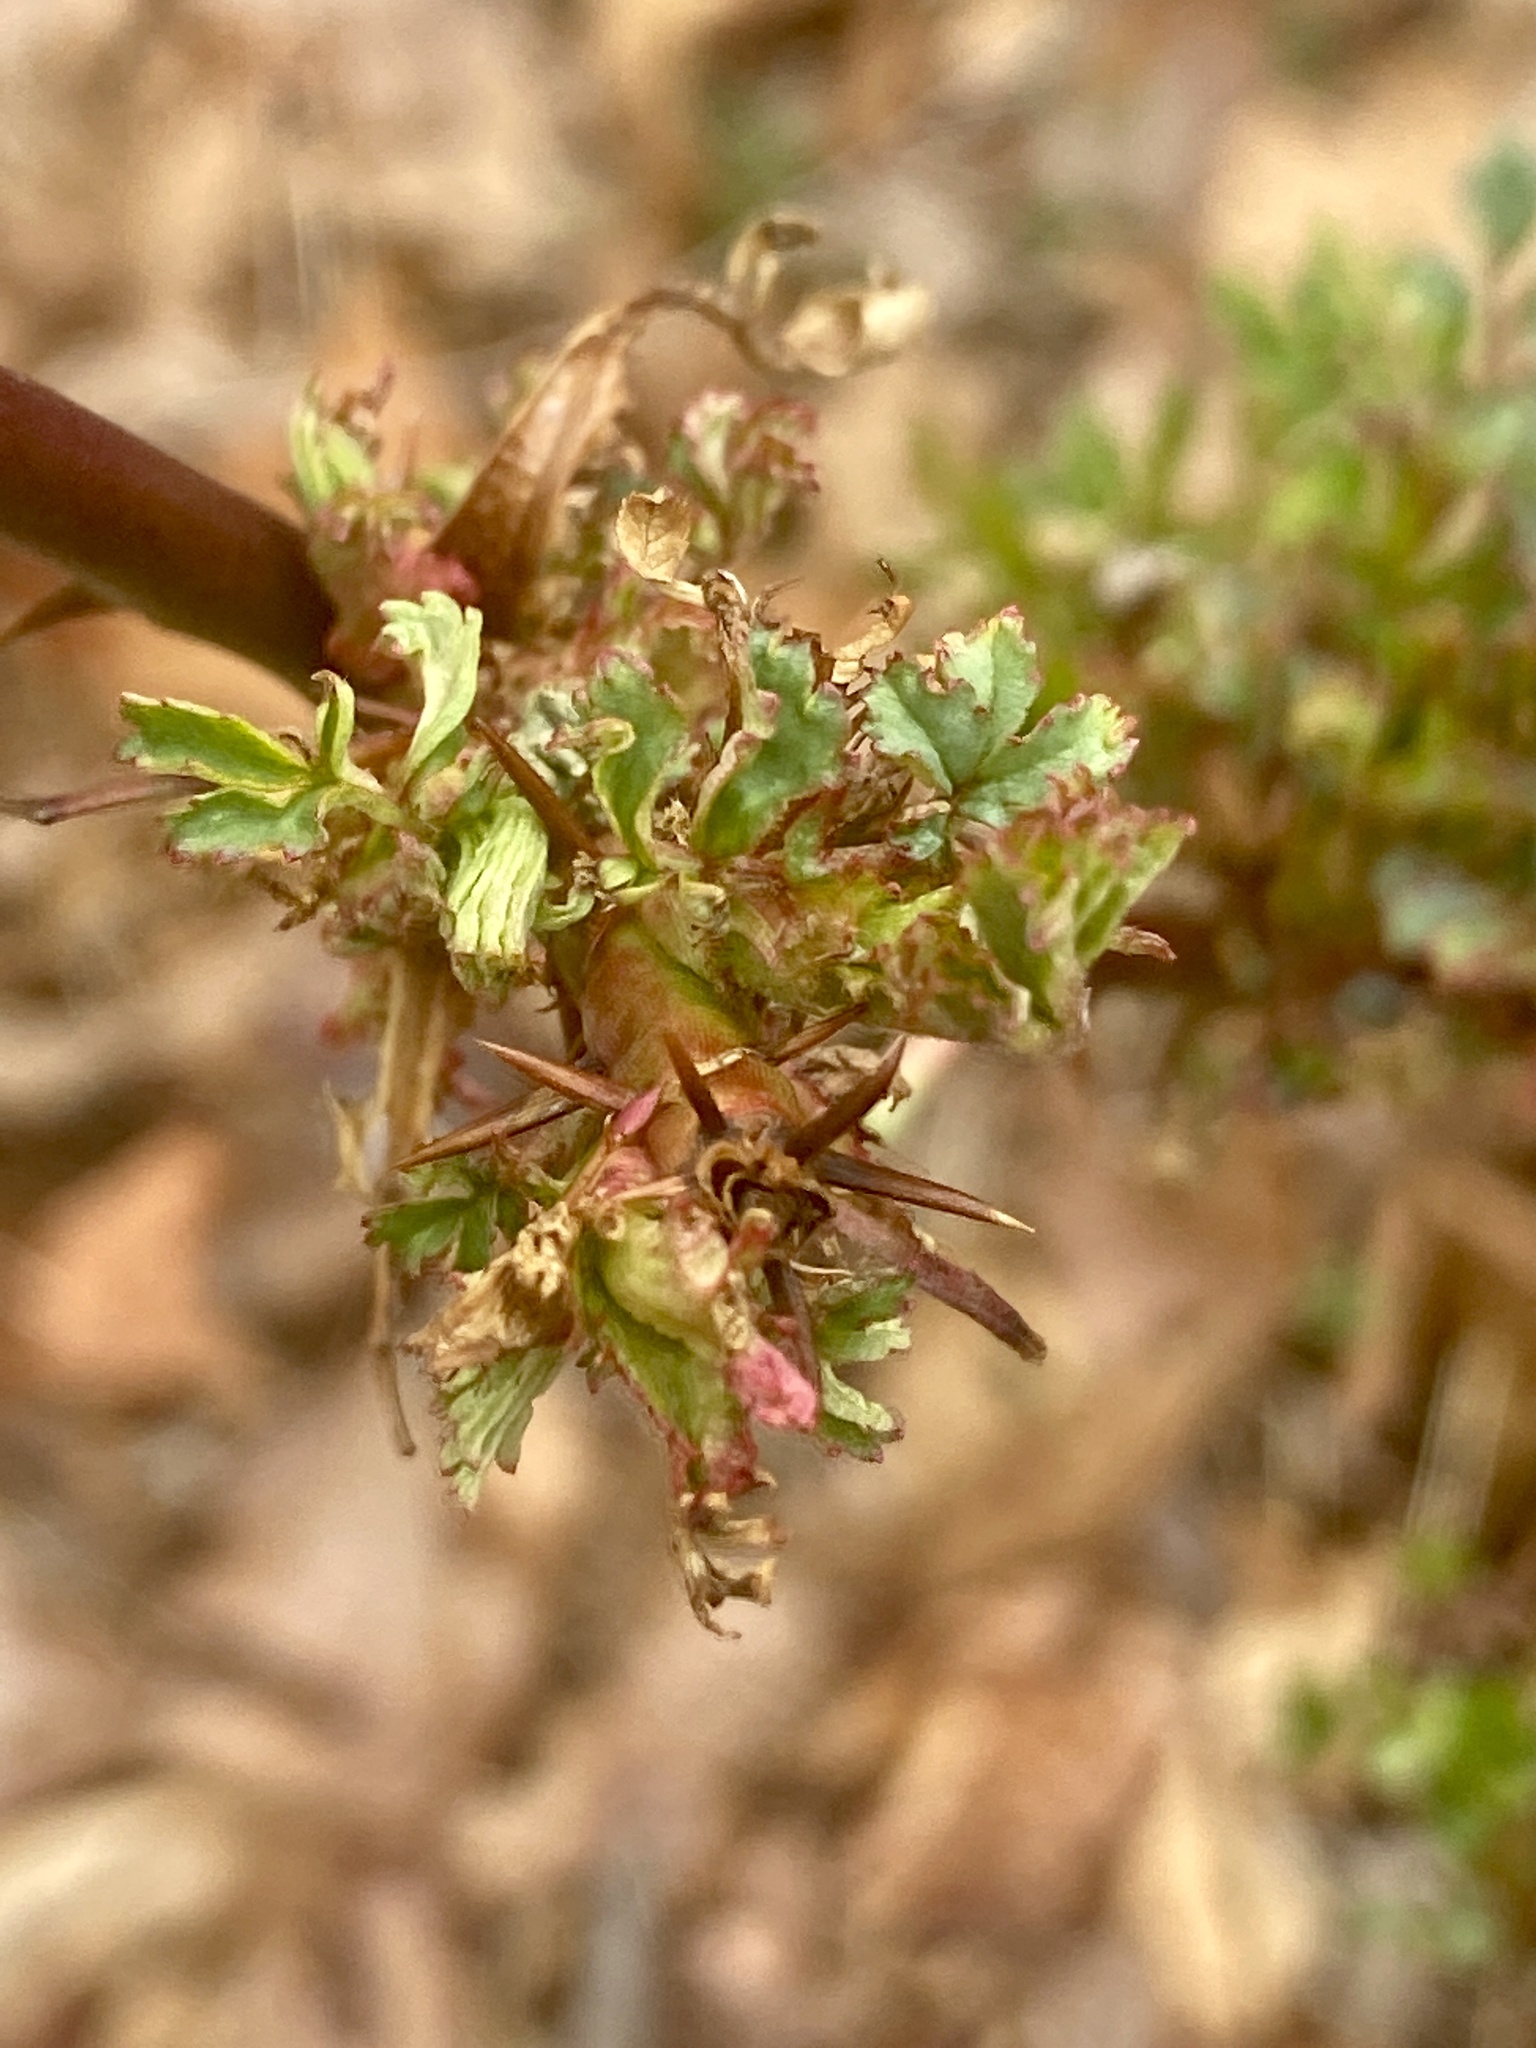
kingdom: Viruses
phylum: Negarnaviricota
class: Ellioviricetes
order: Bunyavirales
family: Fimoviridae
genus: Emaravirus
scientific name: Emaravirus rosae
